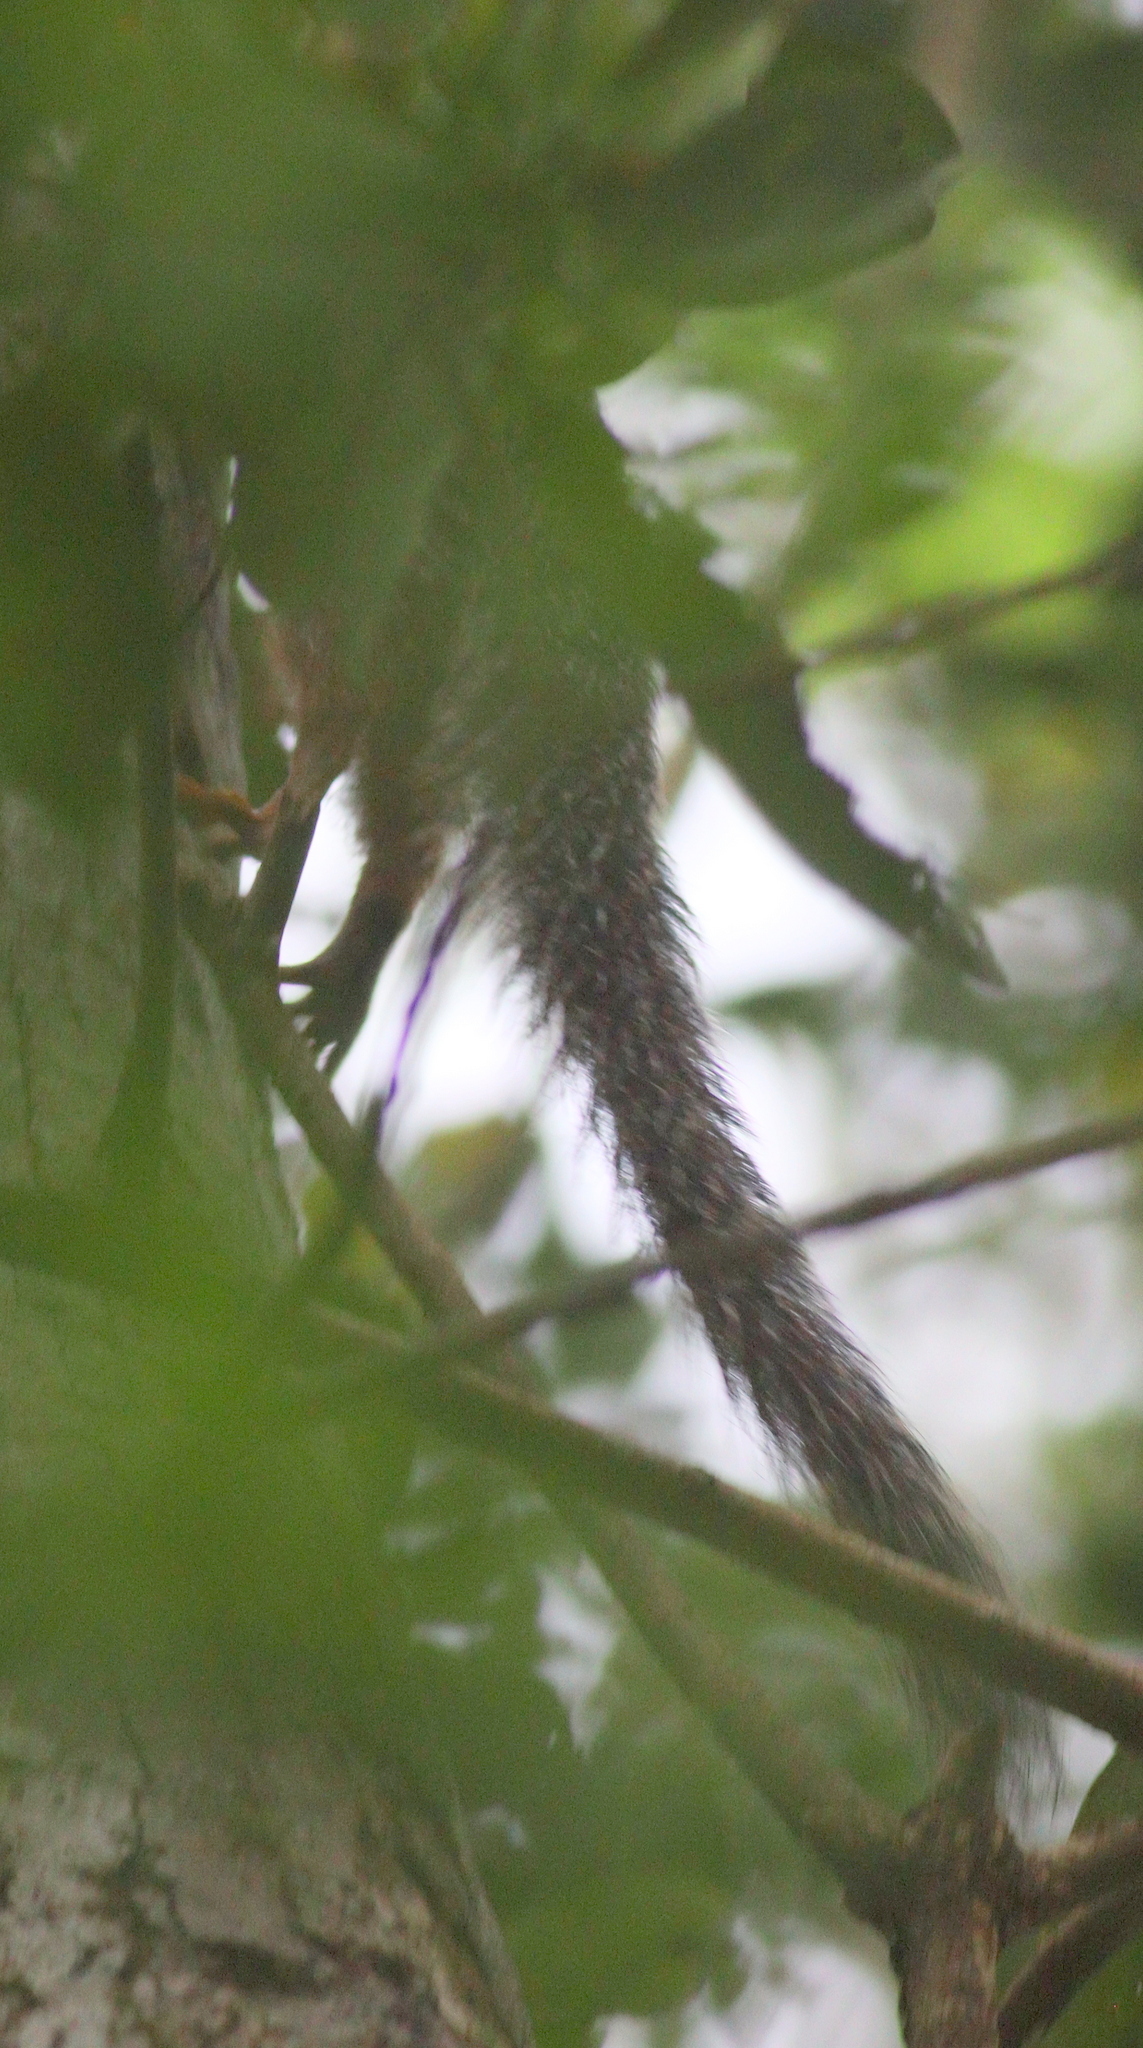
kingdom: Animalia
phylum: Chordata
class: Mammalia
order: Rodentia
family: Sciuridae
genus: Heliosciurus
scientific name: Heliosciurus undulatus
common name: Zanj sun squirrel
